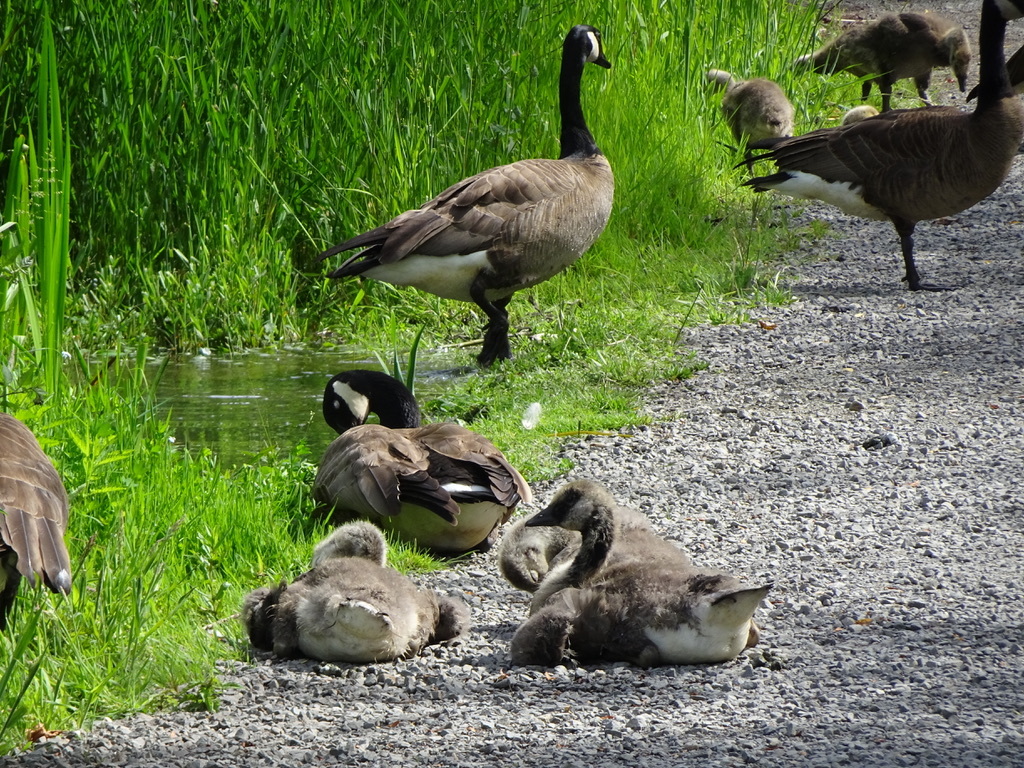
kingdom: Animalia
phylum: Chordata
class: Aves
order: Anseriformes
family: Anatidae
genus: Branta
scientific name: Branta canadensis
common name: Canada goose
